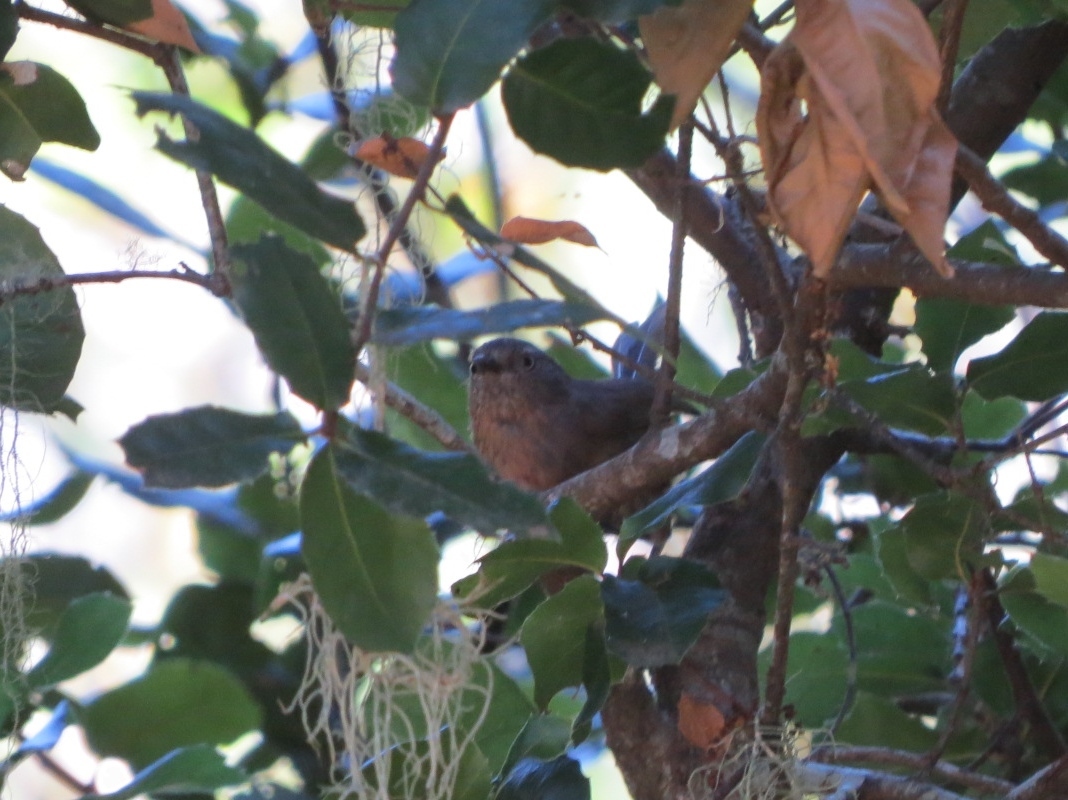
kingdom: Animalia
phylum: Chordata
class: Aves
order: Passeriformes
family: Sylviidae
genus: Chamaea
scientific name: Chamaea fasciata
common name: Wrentit
